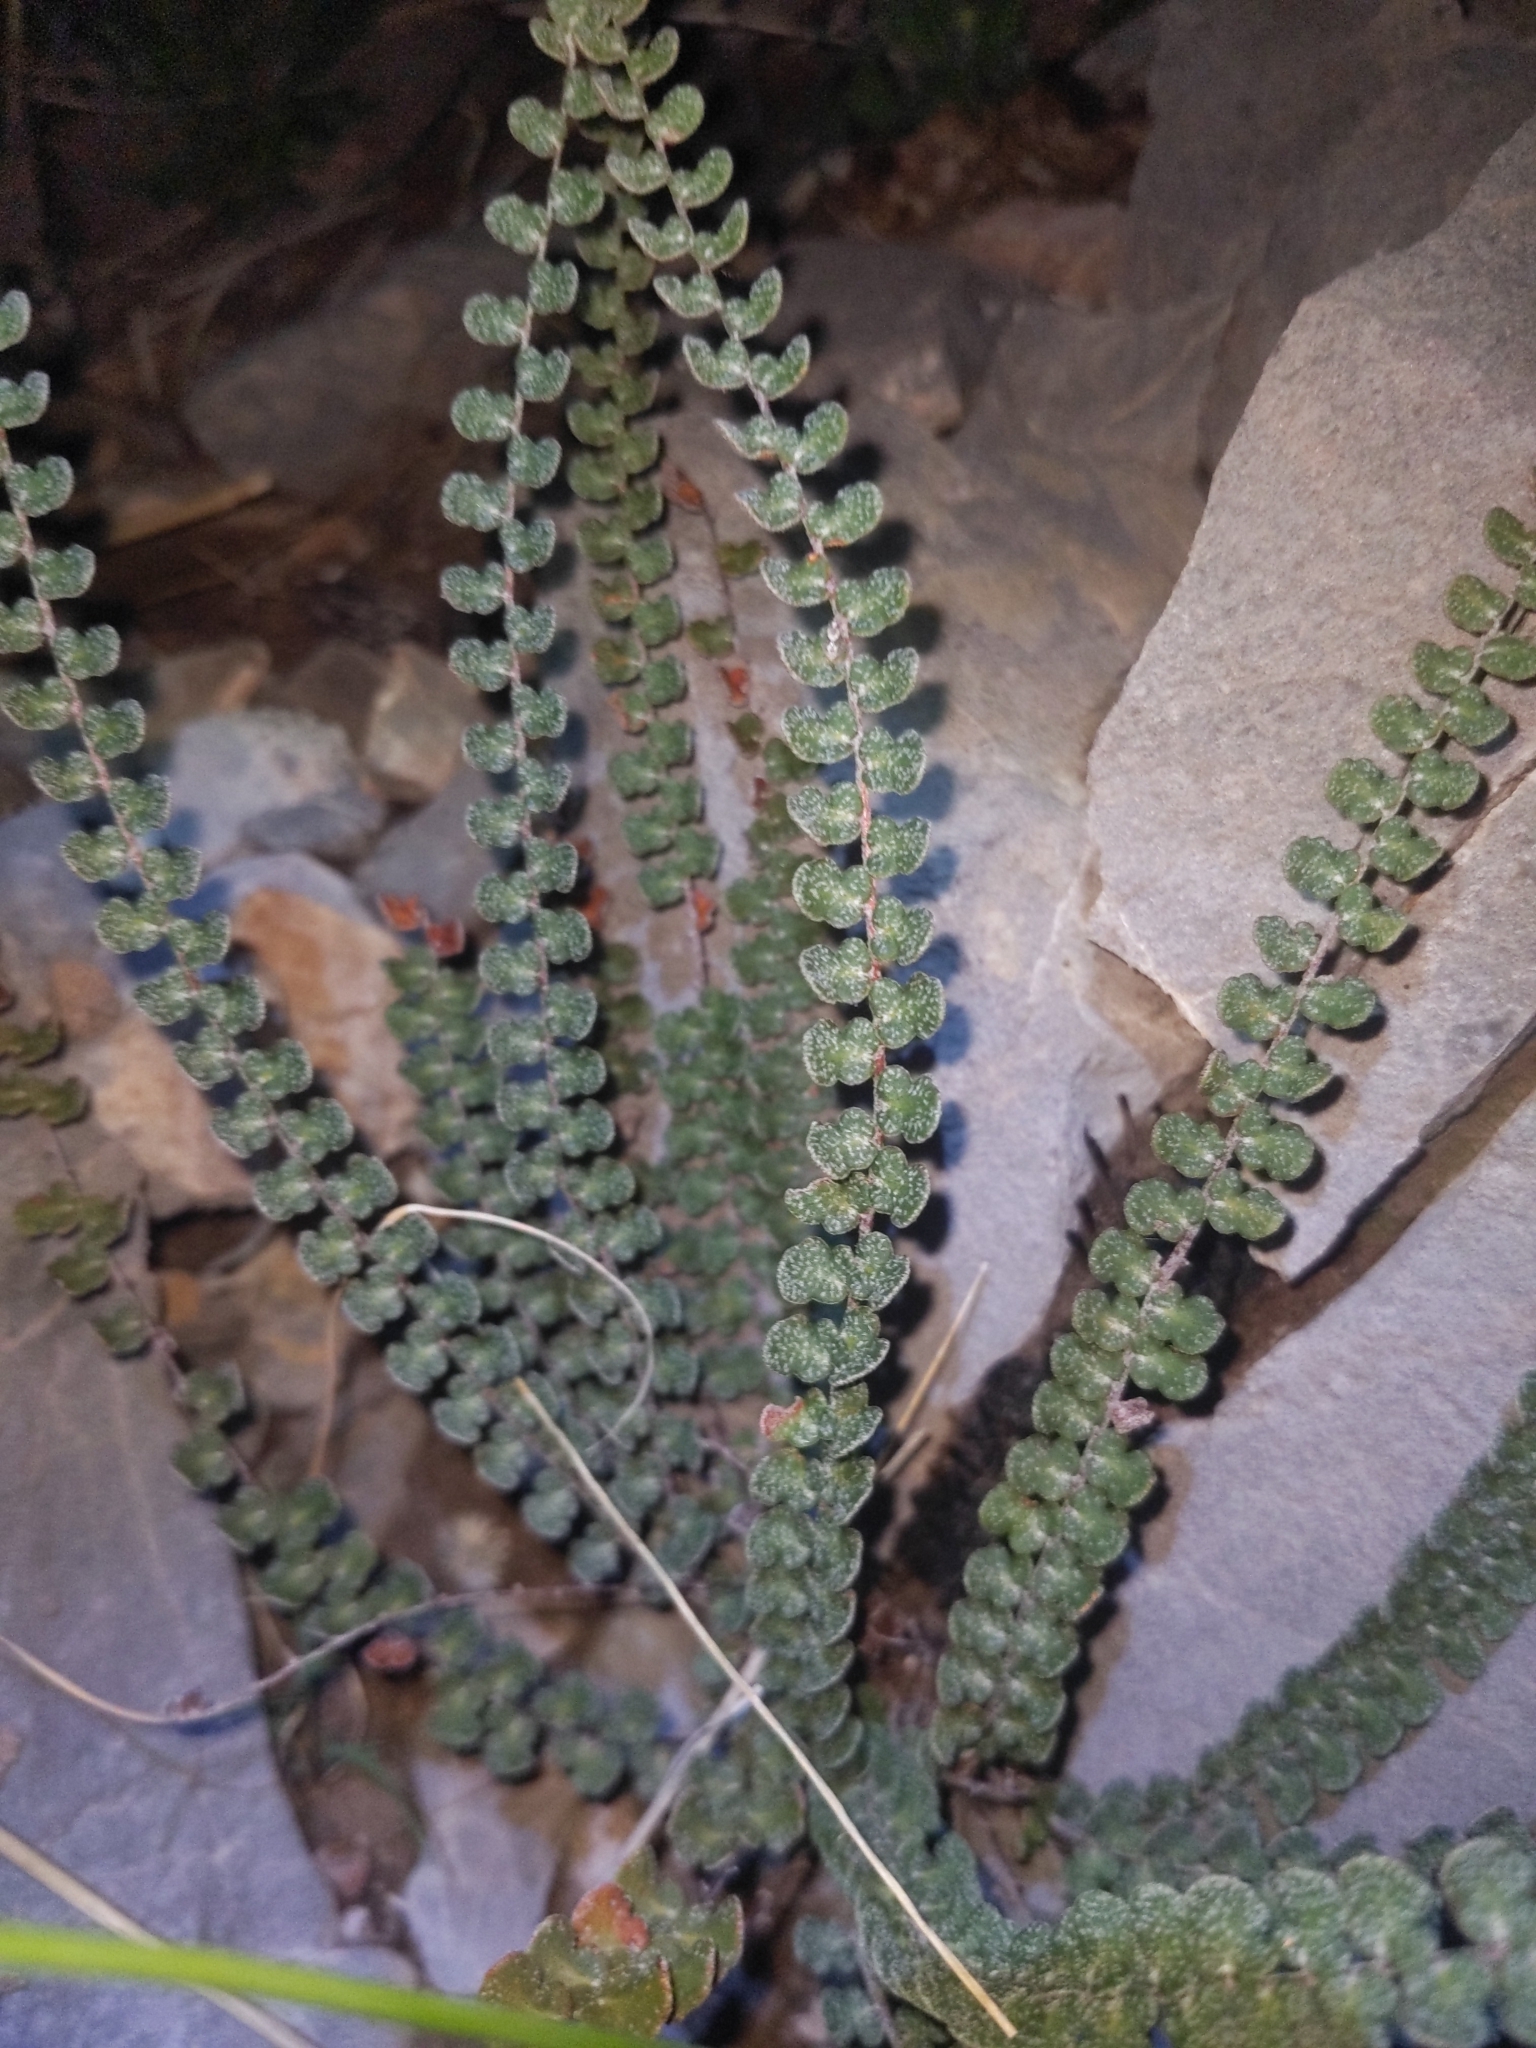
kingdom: Plantae
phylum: Tracheophyta
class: Polypodiopsida
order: Polypodiales
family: Pteridaceae
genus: Astrolepis
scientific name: Astrolepis cochisensis
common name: Scaly cloak fern
